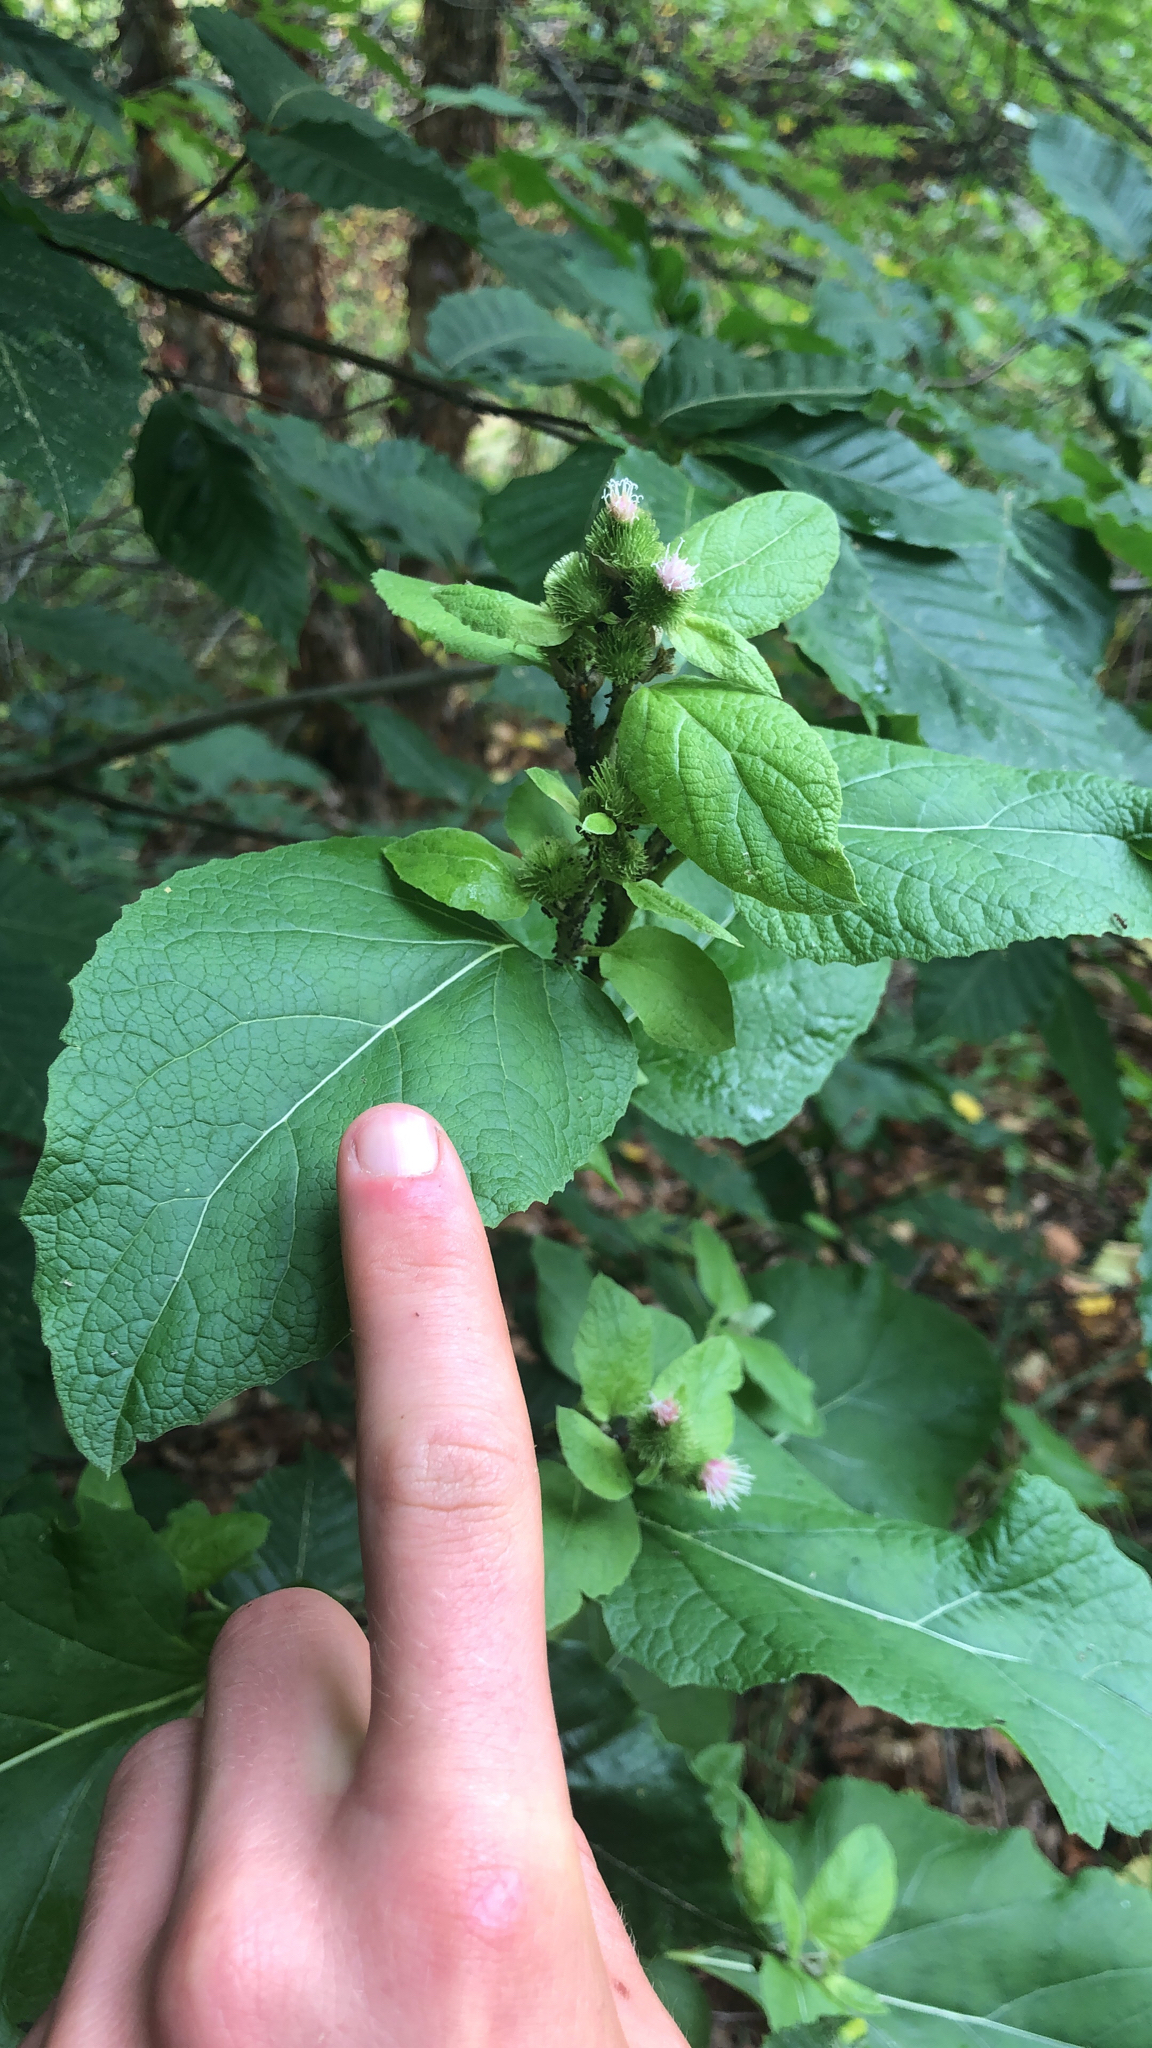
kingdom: Plantae
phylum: Tracheophyta
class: Magnoliopsida
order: Asterales
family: Asteraceae
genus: Arctium
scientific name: Arctium minus
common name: Lesser burdock
